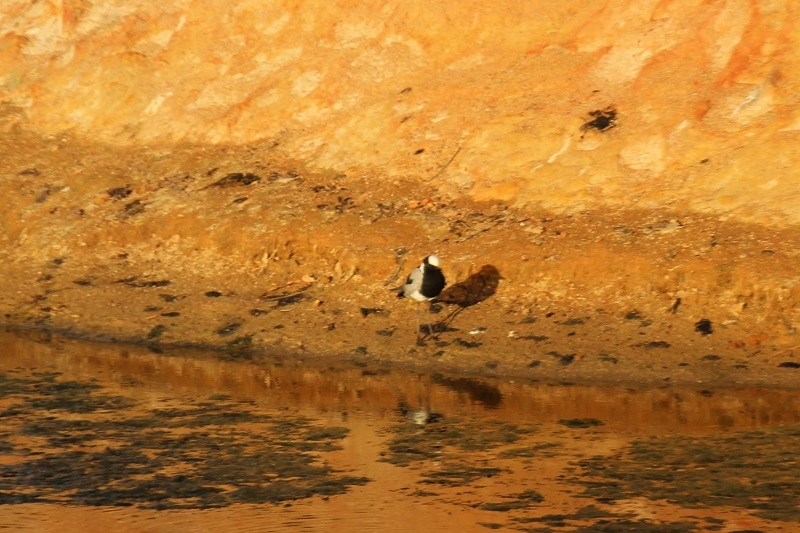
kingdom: Animalia
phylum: Chordata
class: Aves
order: Charadriiformes
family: Charadriidae
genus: Vanellus
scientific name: Vanellus armatus
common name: Blacksmith lapwing
